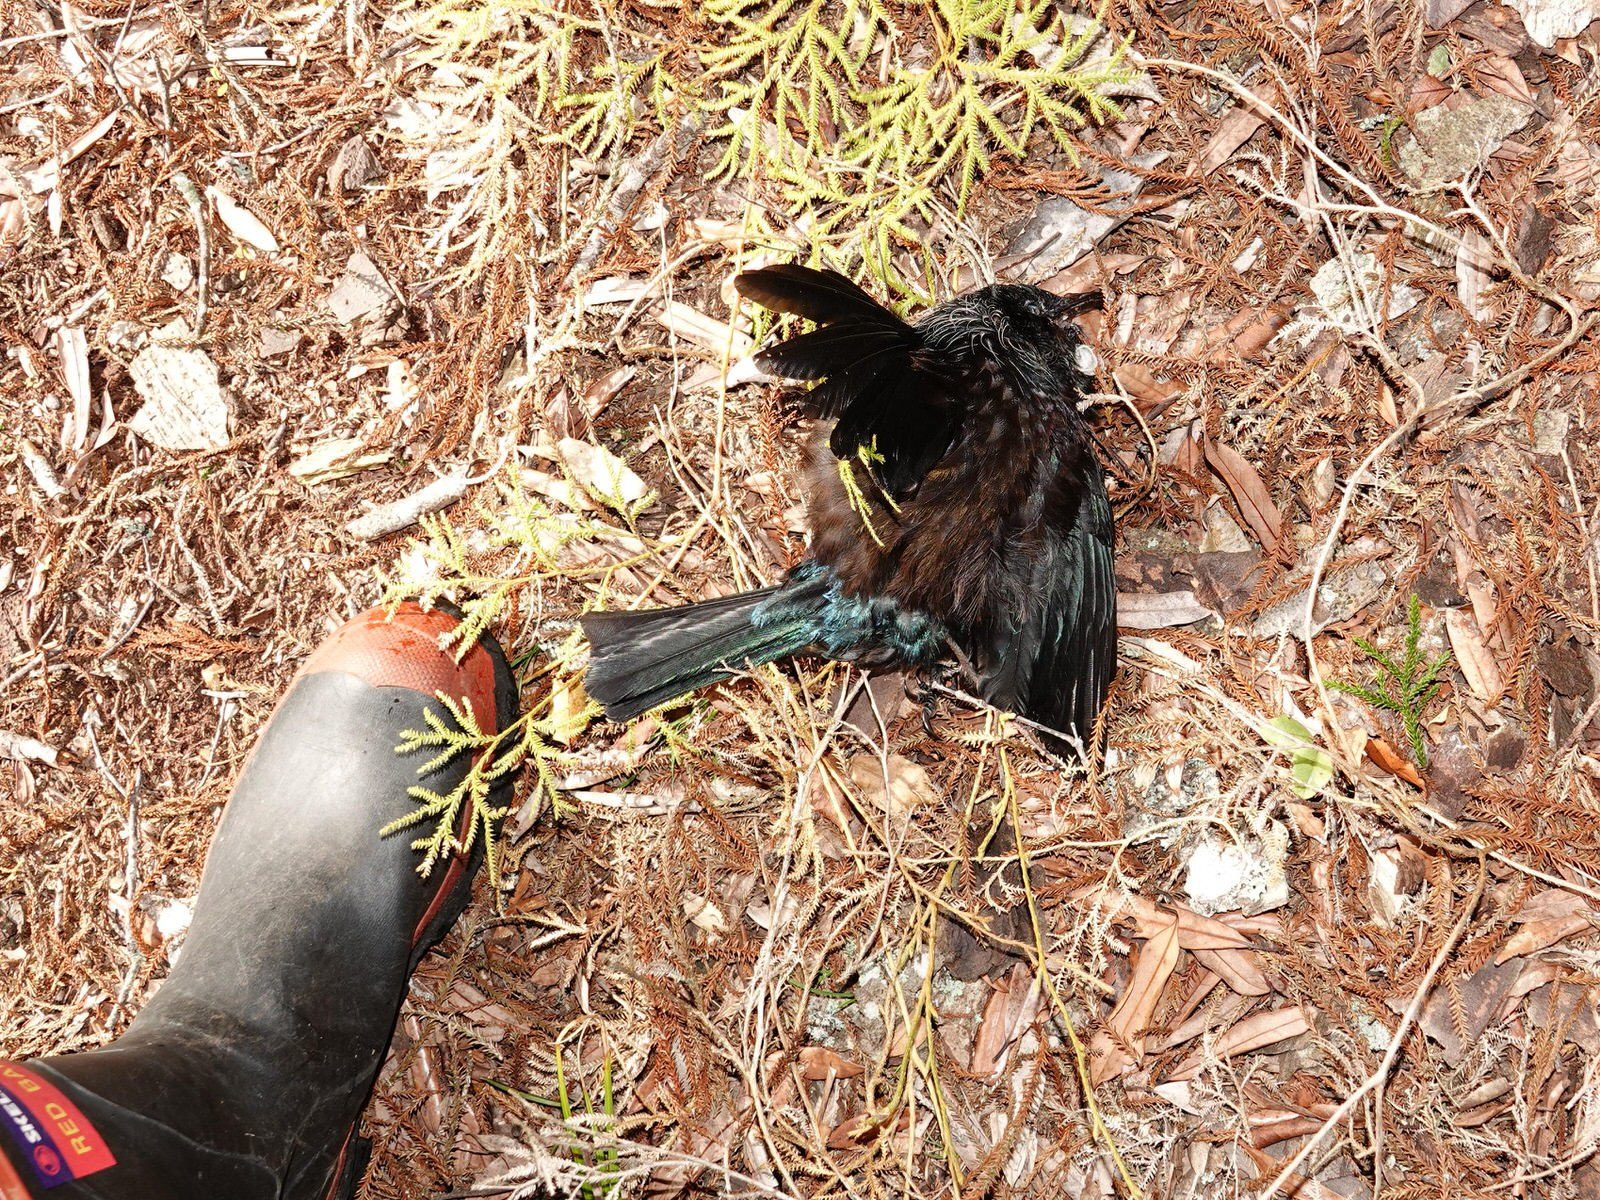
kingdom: Animalia
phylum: Chordata
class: Aves
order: Passeriformes
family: Meliphagidae
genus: Prosthemadera
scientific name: Prosthemadera novaeseelandiae
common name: Tui
